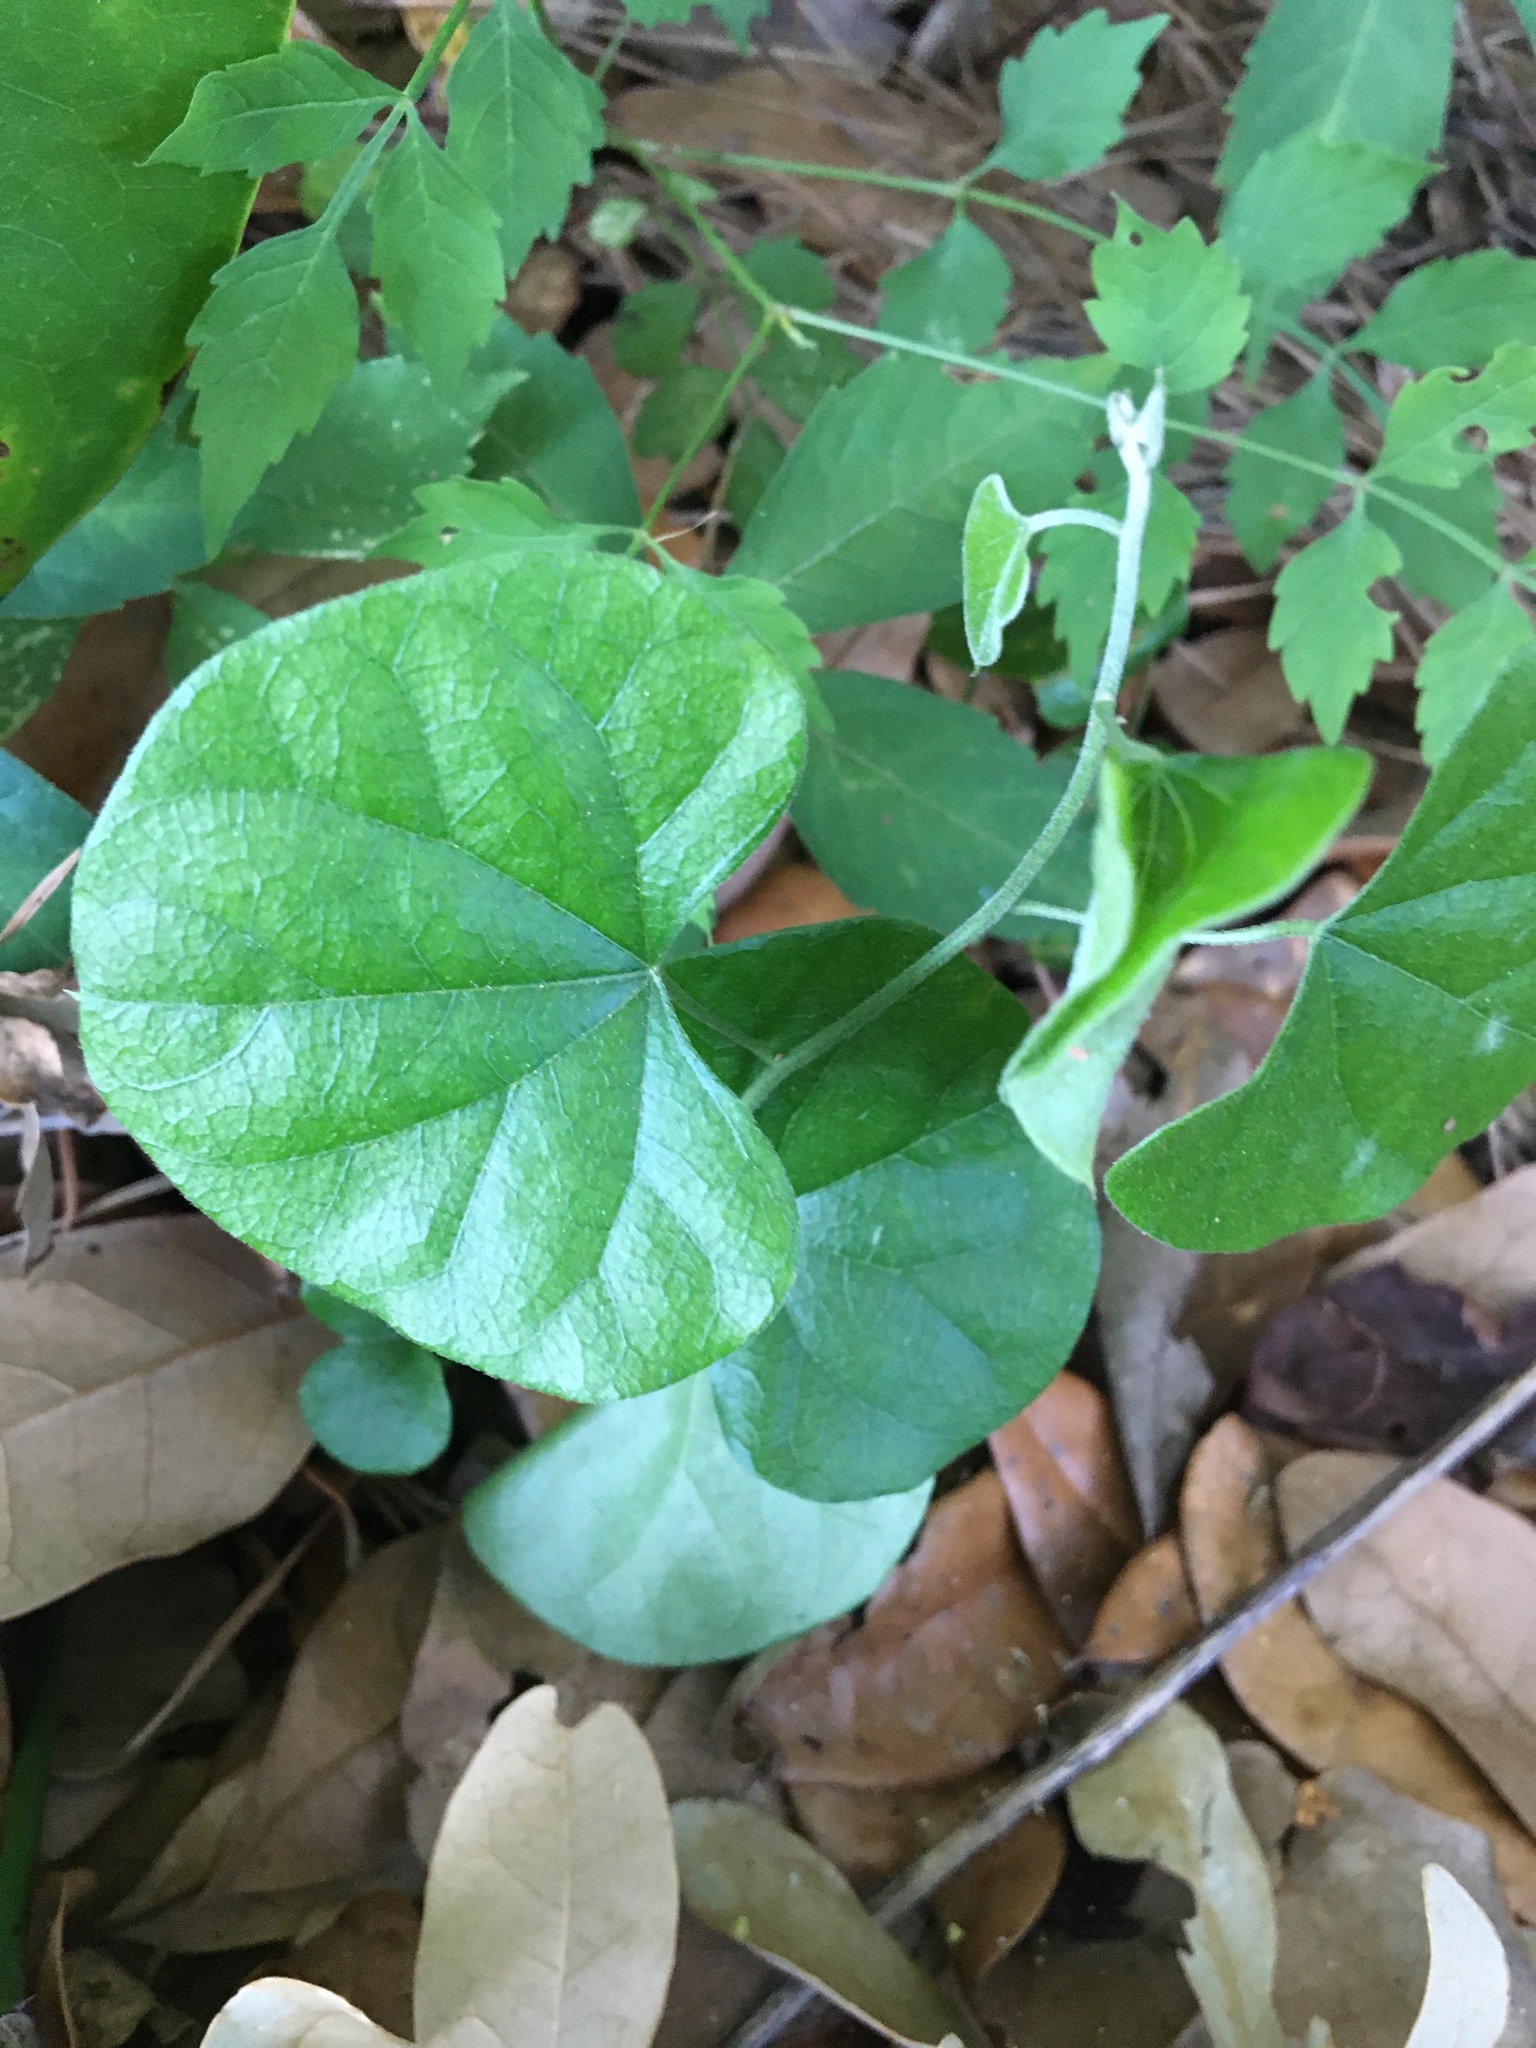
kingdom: Plantae
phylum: Tracheophyta
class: Magnoliopsida
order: Ranunculales
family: Menispermaceae
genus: Cocculus
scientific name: Cocculus carolinus
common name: Carolina moonseed
